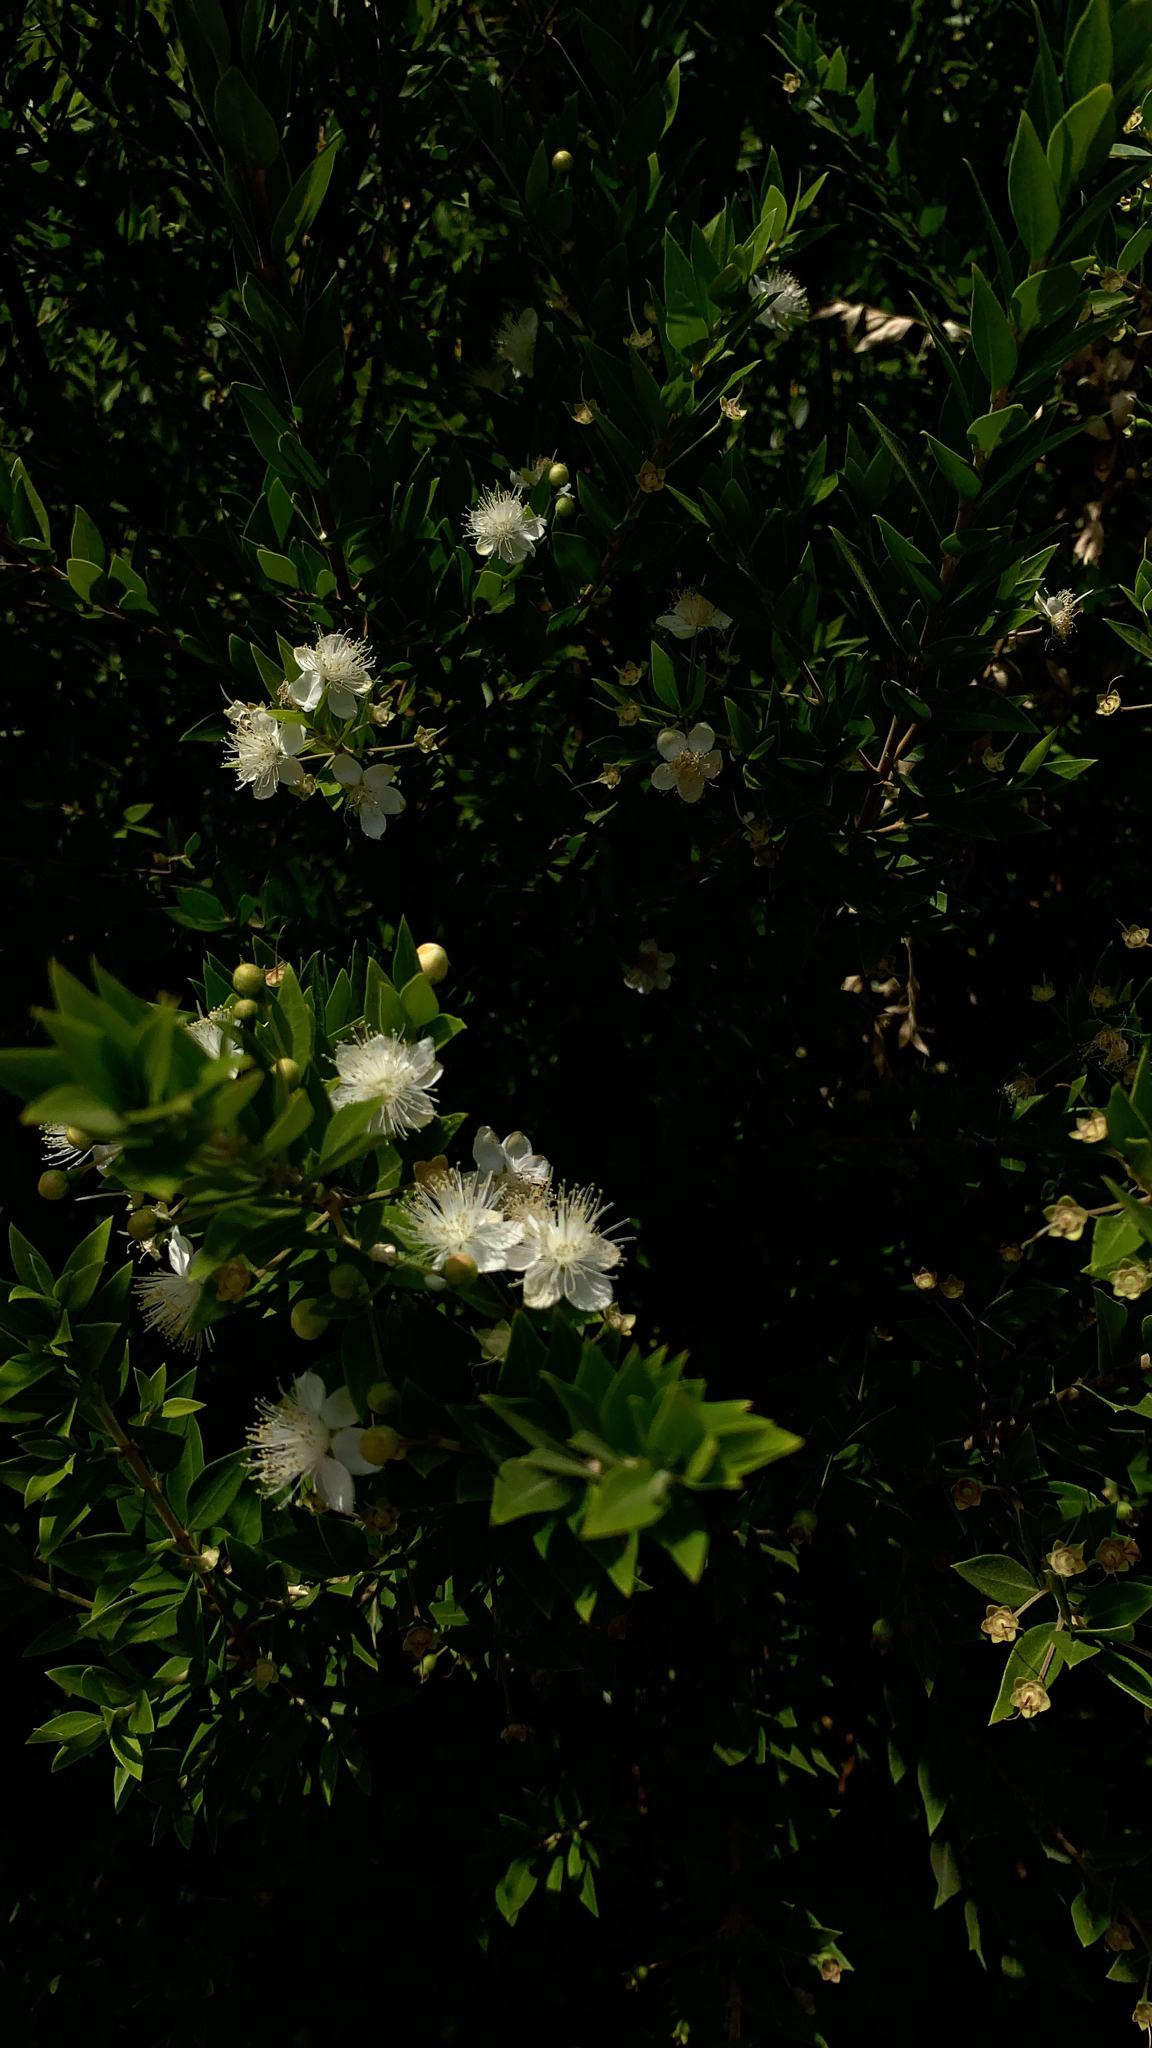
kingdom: Plantae
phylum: Tracheophyta
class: Magnoliopsida
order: Myrtales
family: Myrtaceae
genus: Myrtus
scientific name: Myrtus communis
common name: Myrtle
